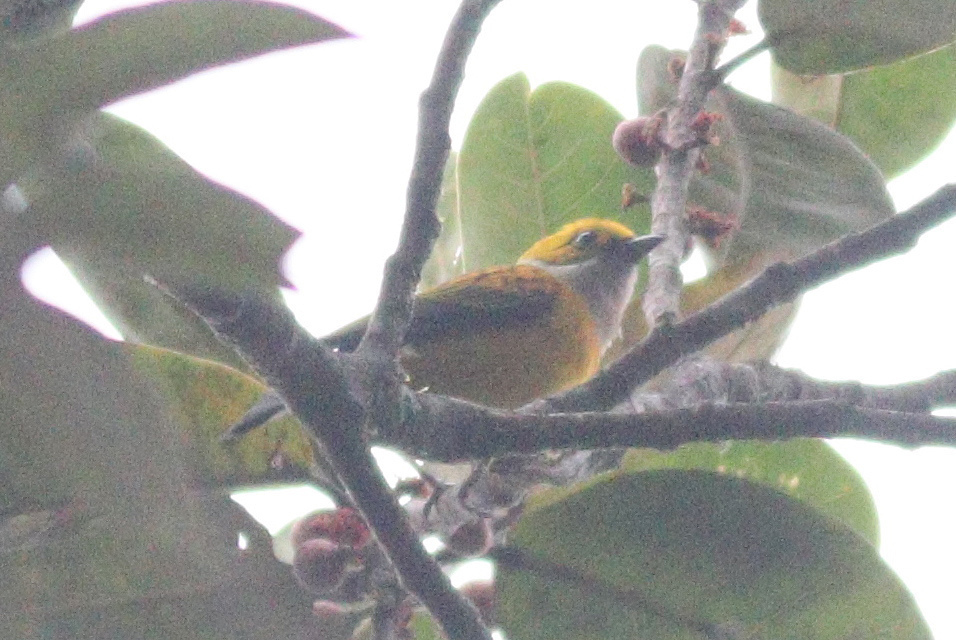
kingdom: Animalia
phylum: Chordata
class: Aves
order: Passeriformes
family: Thraupidae
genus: Tangara
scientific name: Tangara icterocephala
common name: Silver-throated tanager
